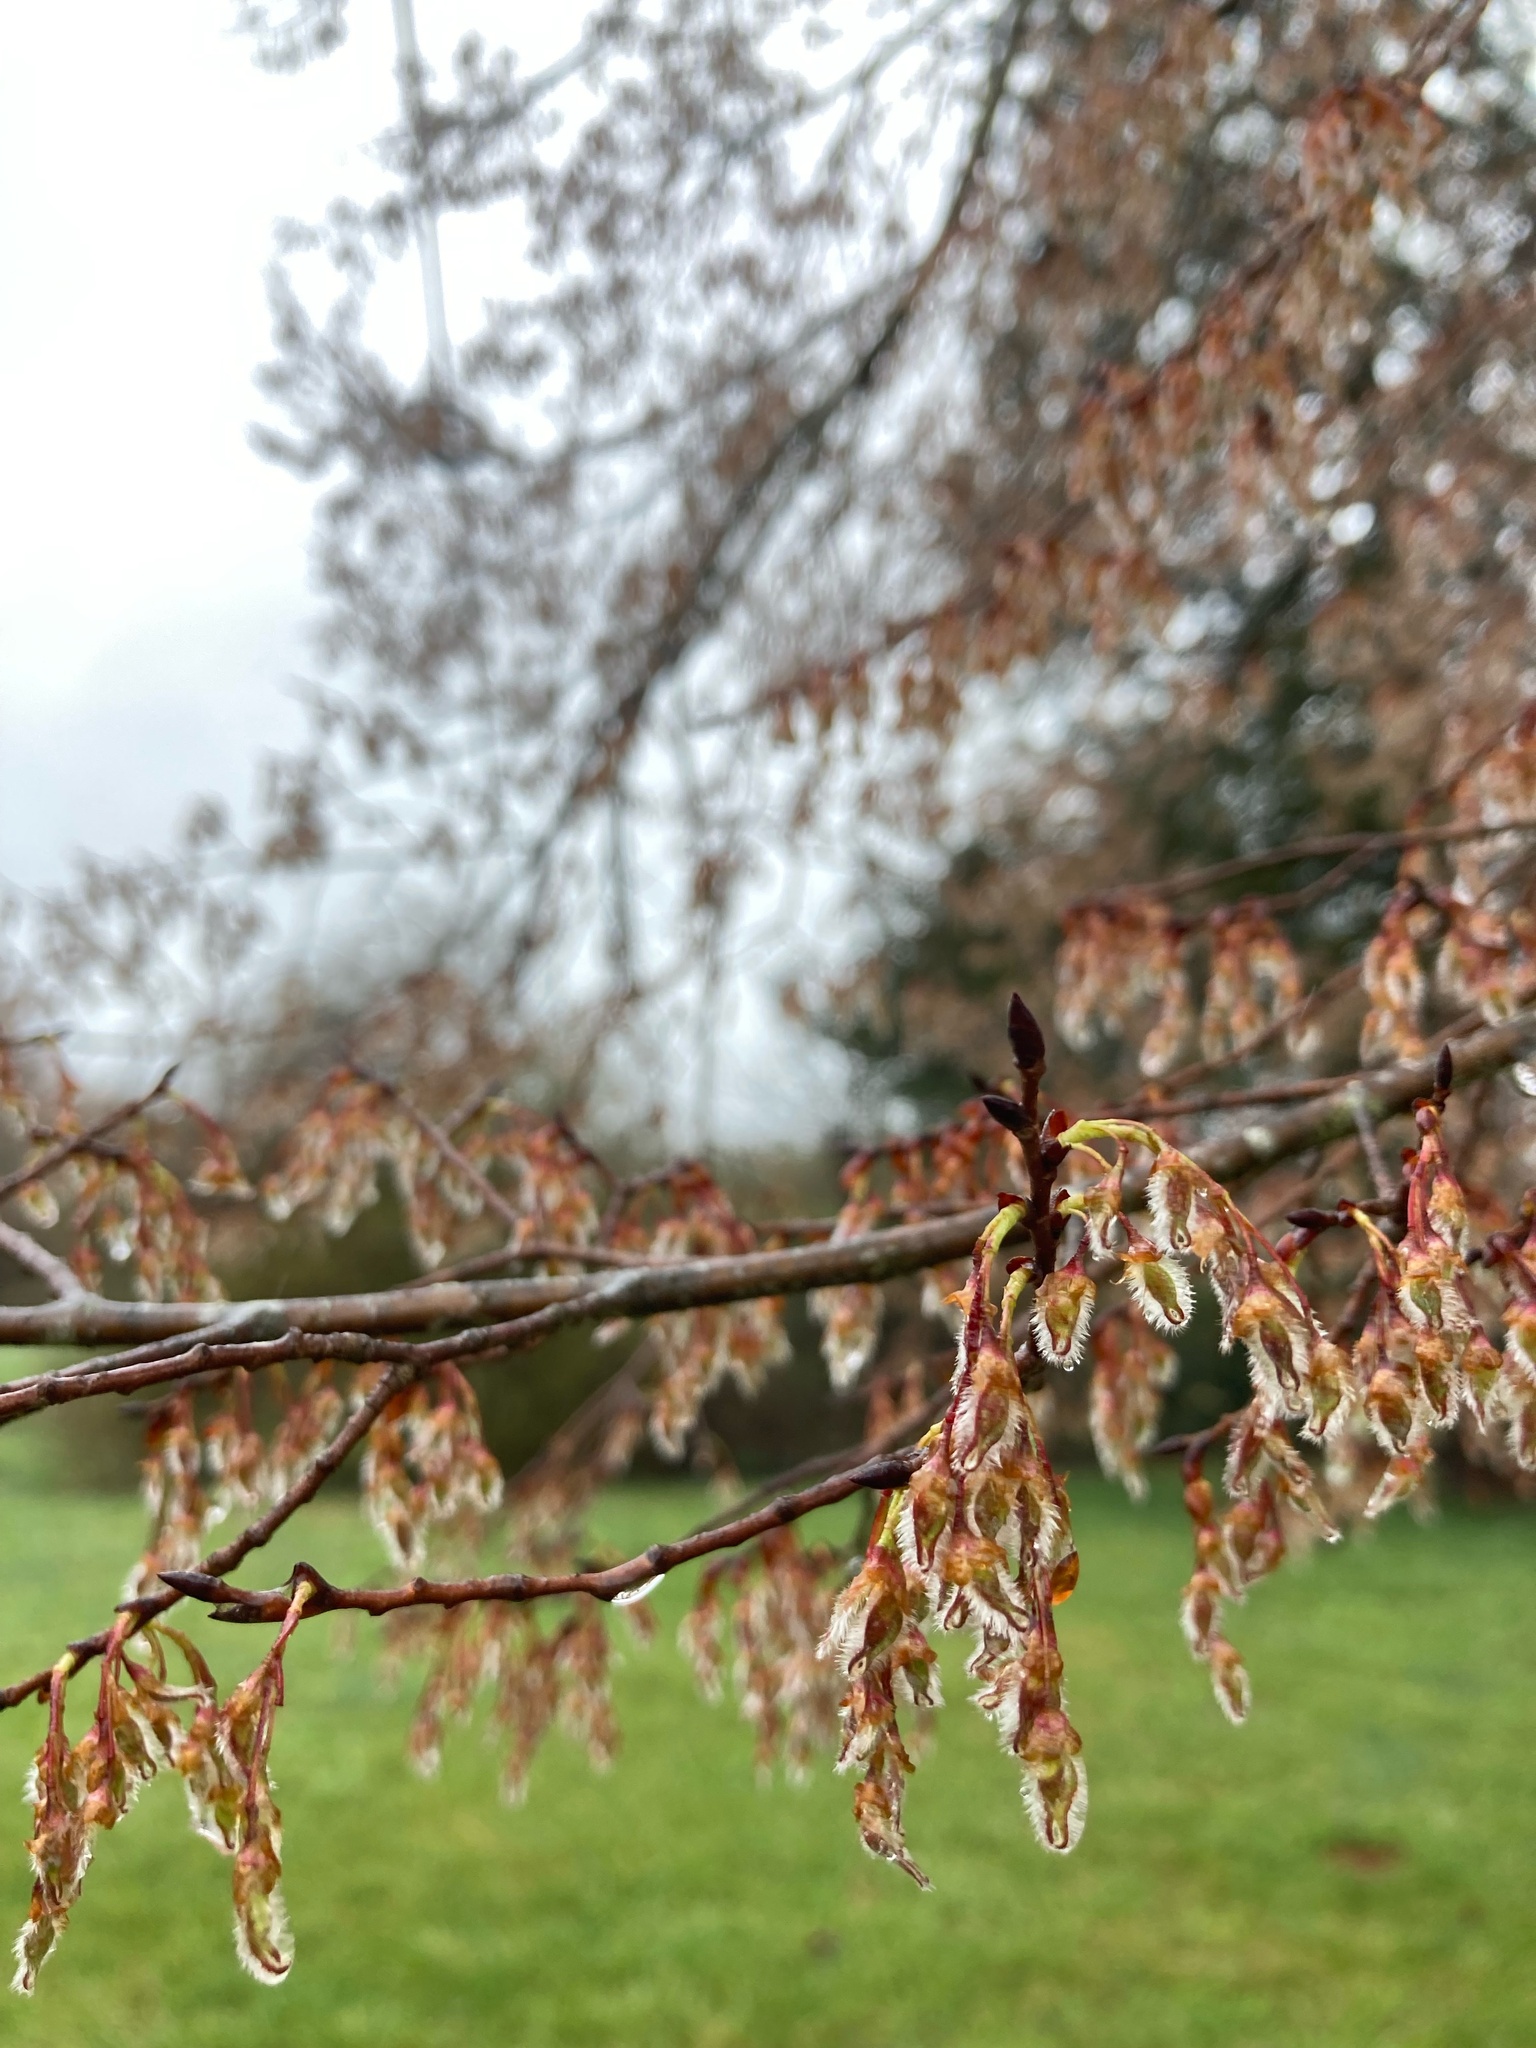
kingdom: Plantae
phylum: Tracheophyta
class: Magnoliopsida
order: Rosales
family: Ulmaceae
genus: Ulmus
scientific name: Ulmus alata
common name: Winged elm
